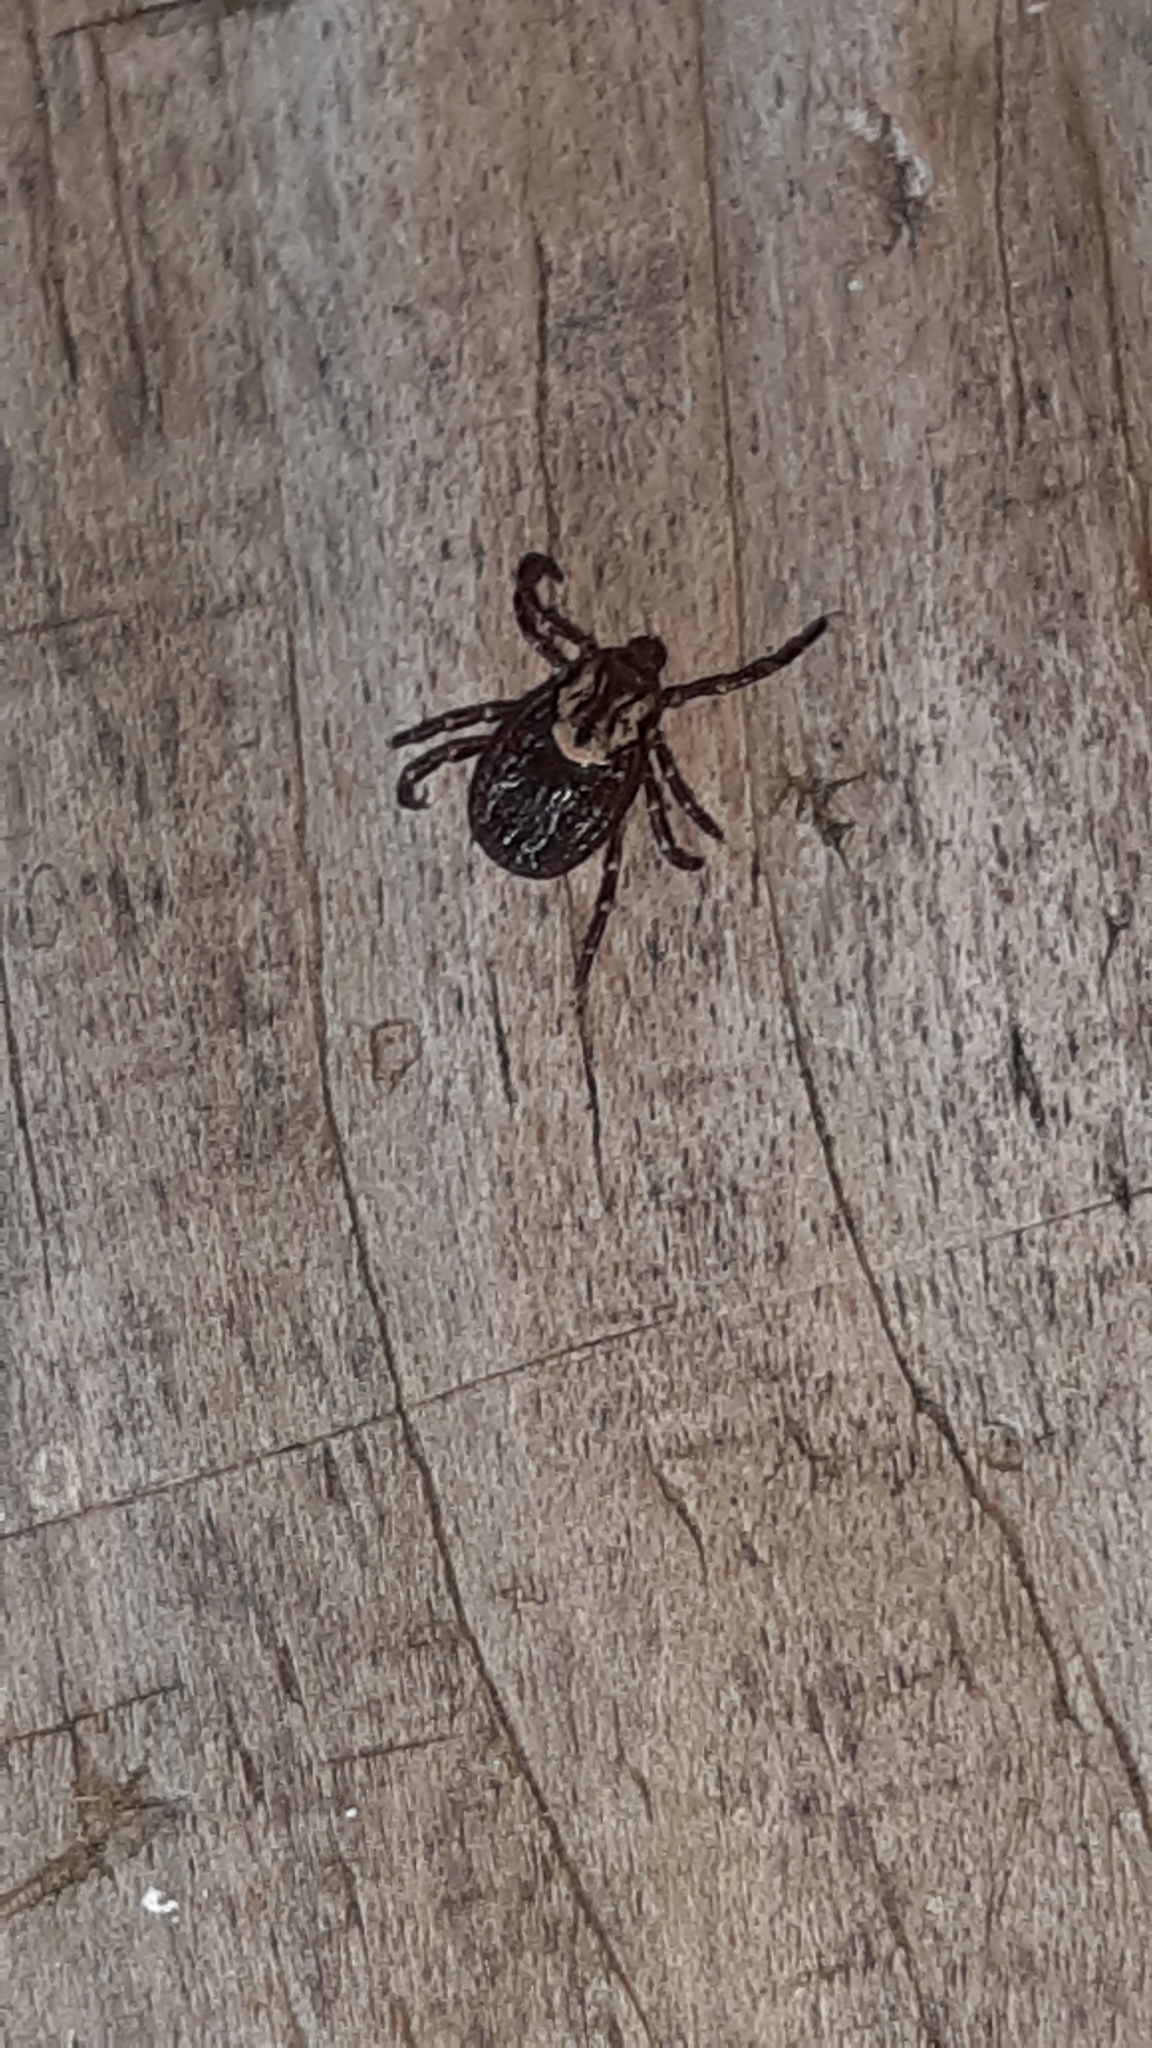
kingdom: Animalia
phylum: Arthropoda
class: Arachnida
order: Ixodida
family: Ixodidae
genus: Dermacentor
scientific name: Dermacentor variabilis
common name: American dog tick
